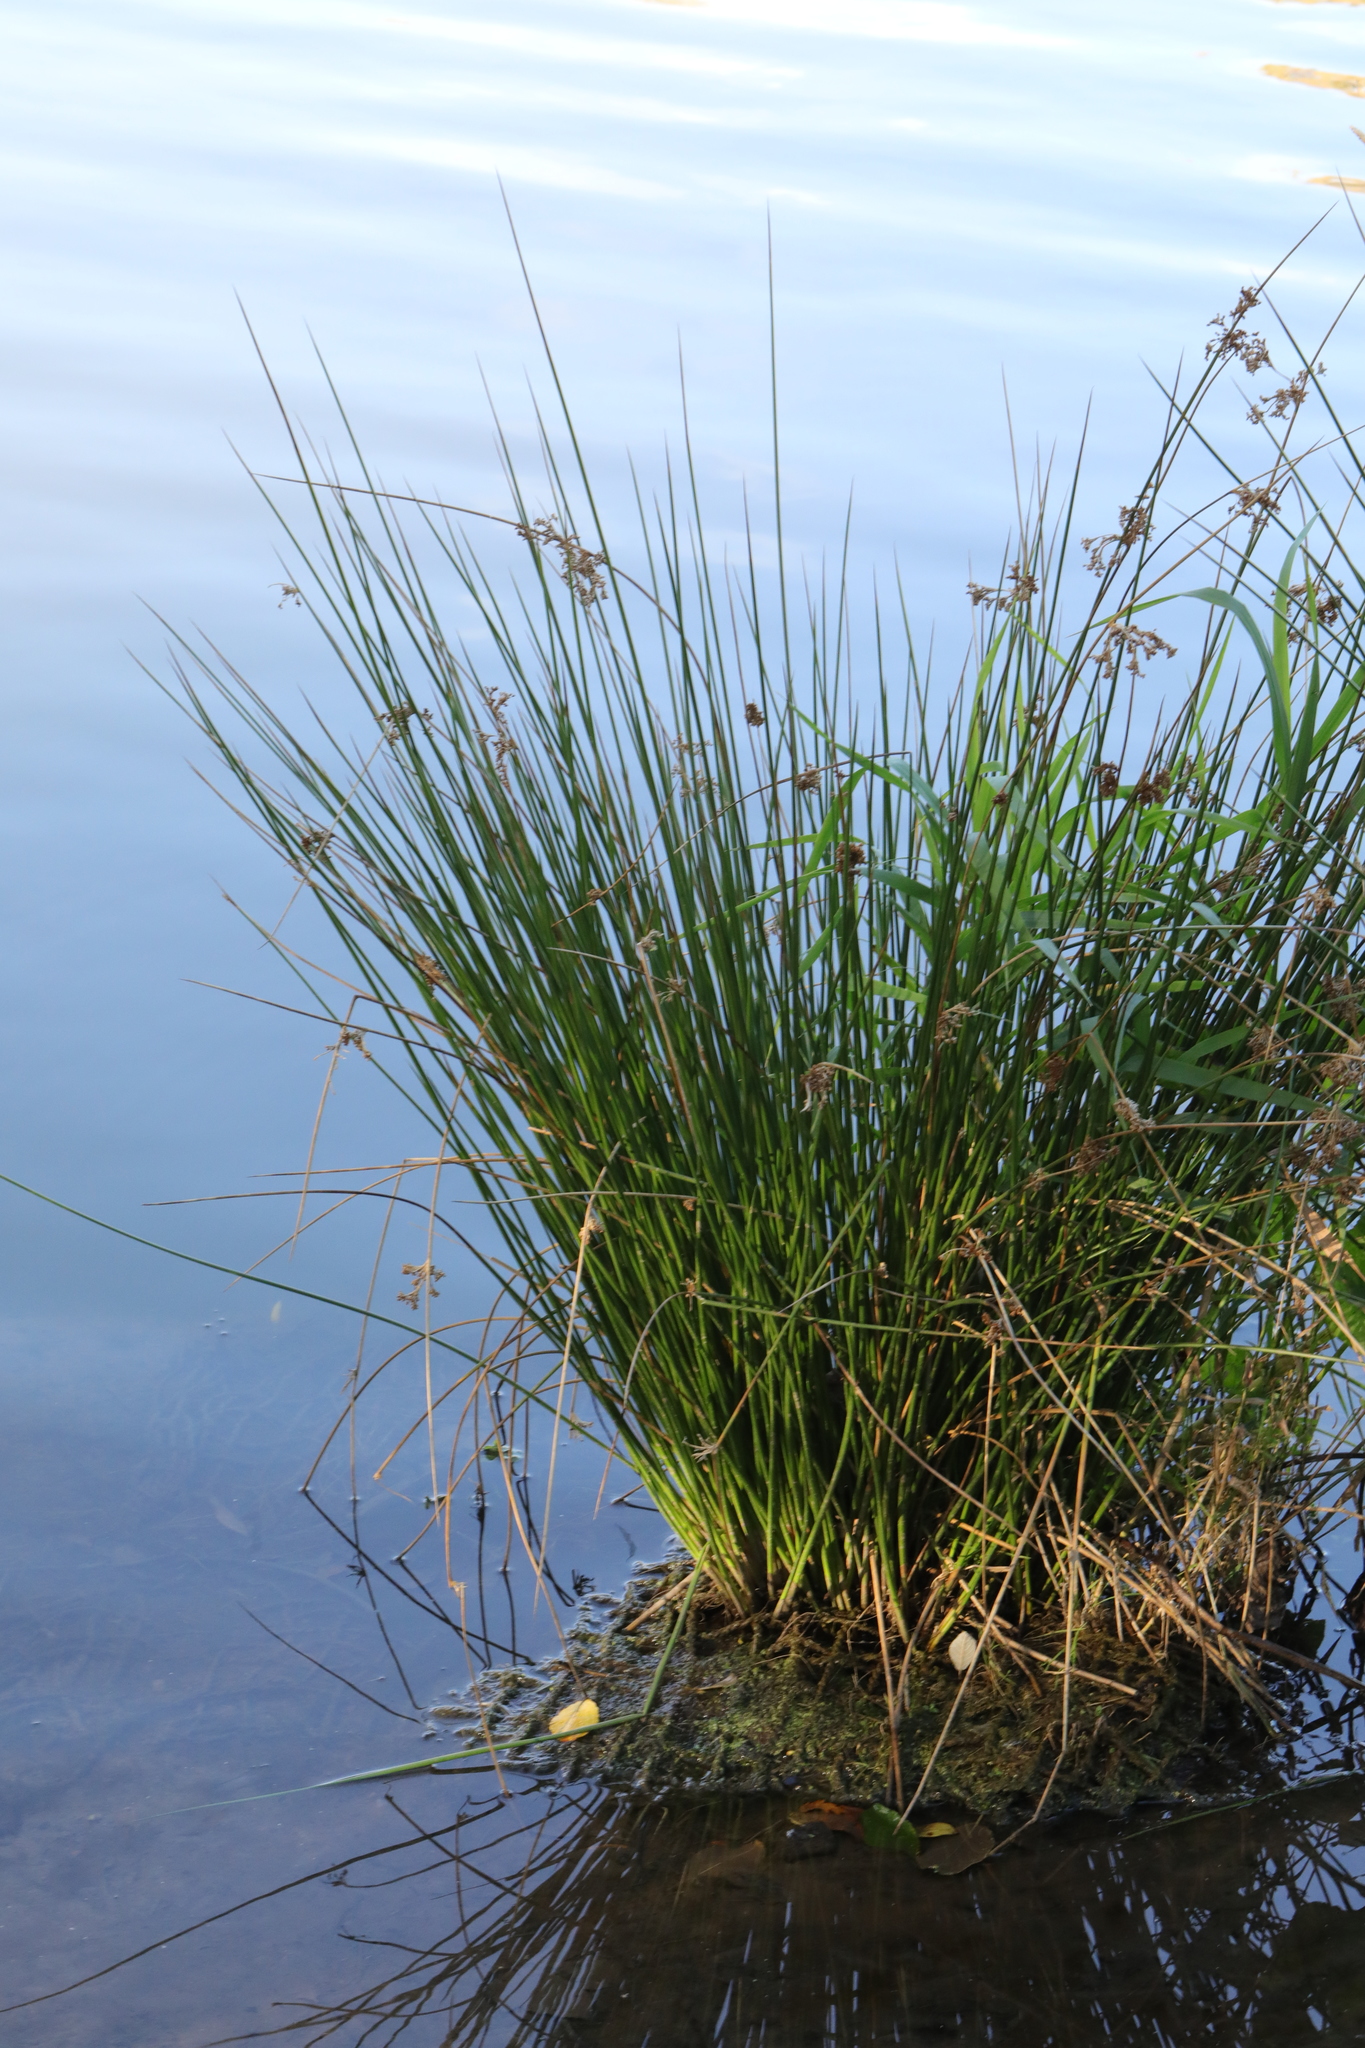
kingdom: Plantae
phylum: Tracheophyta
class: Liliopsida
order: Poales
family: Juncaceae
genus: Juncus
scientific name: Juncus inflexus
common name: Hard rush
